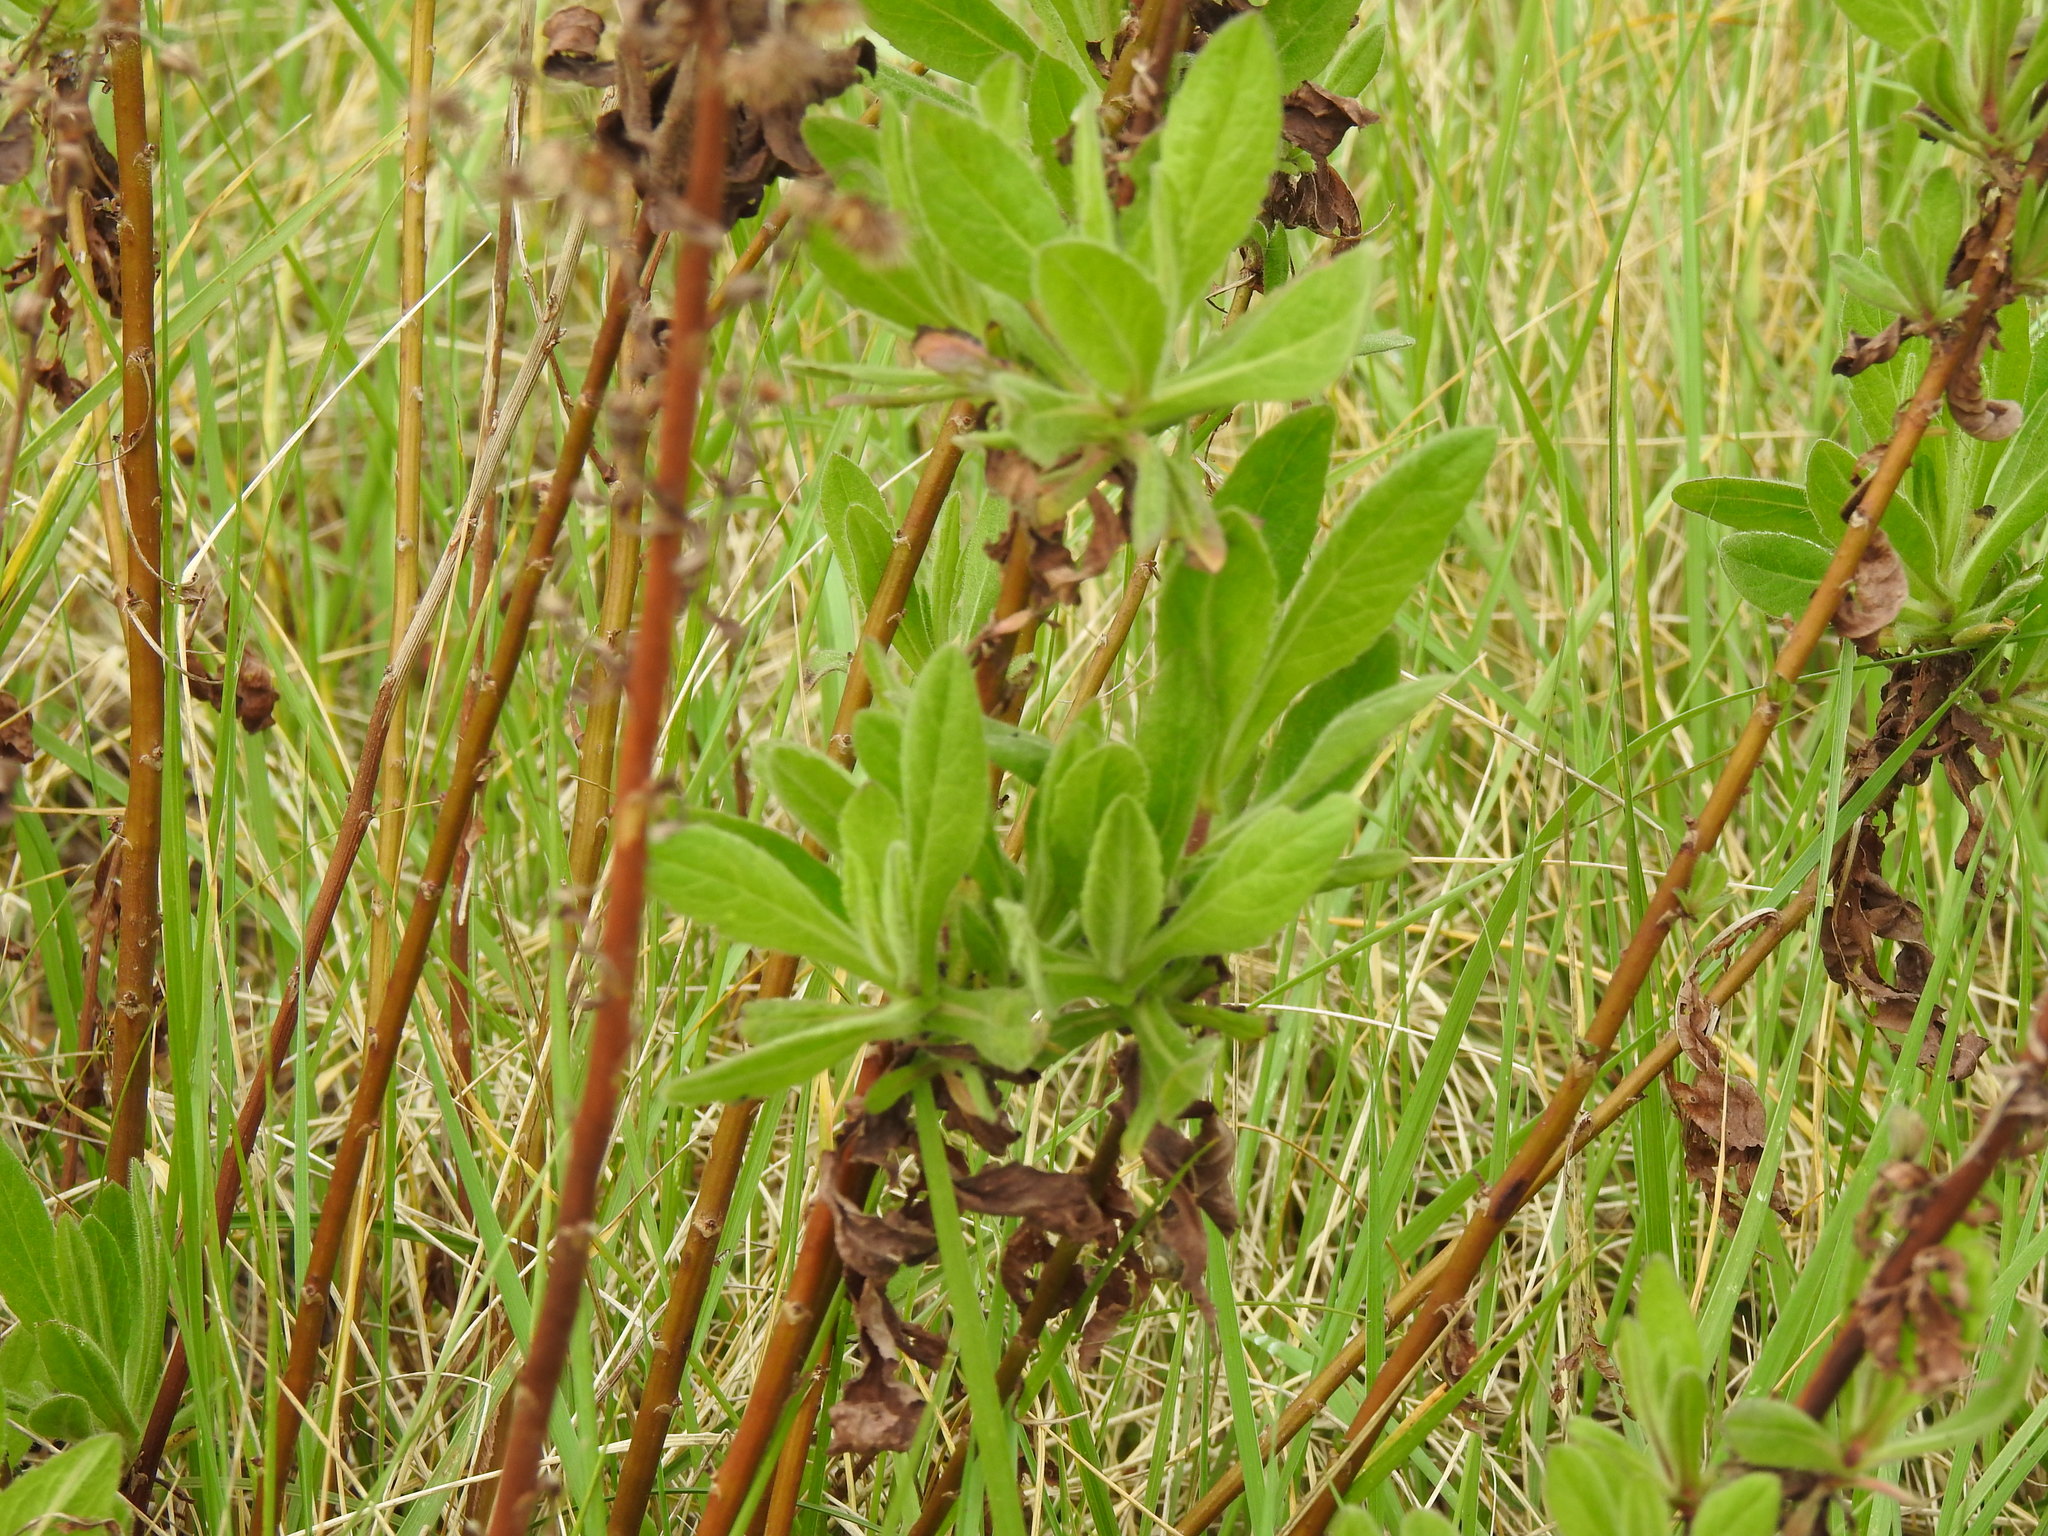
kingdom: Plantae
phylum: Tracheophyta
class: Magnoliopsida
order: Asterales
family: Asteraceae
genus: Dittrichia
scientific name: Dittrichia viscosa
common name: Woody fleabane
